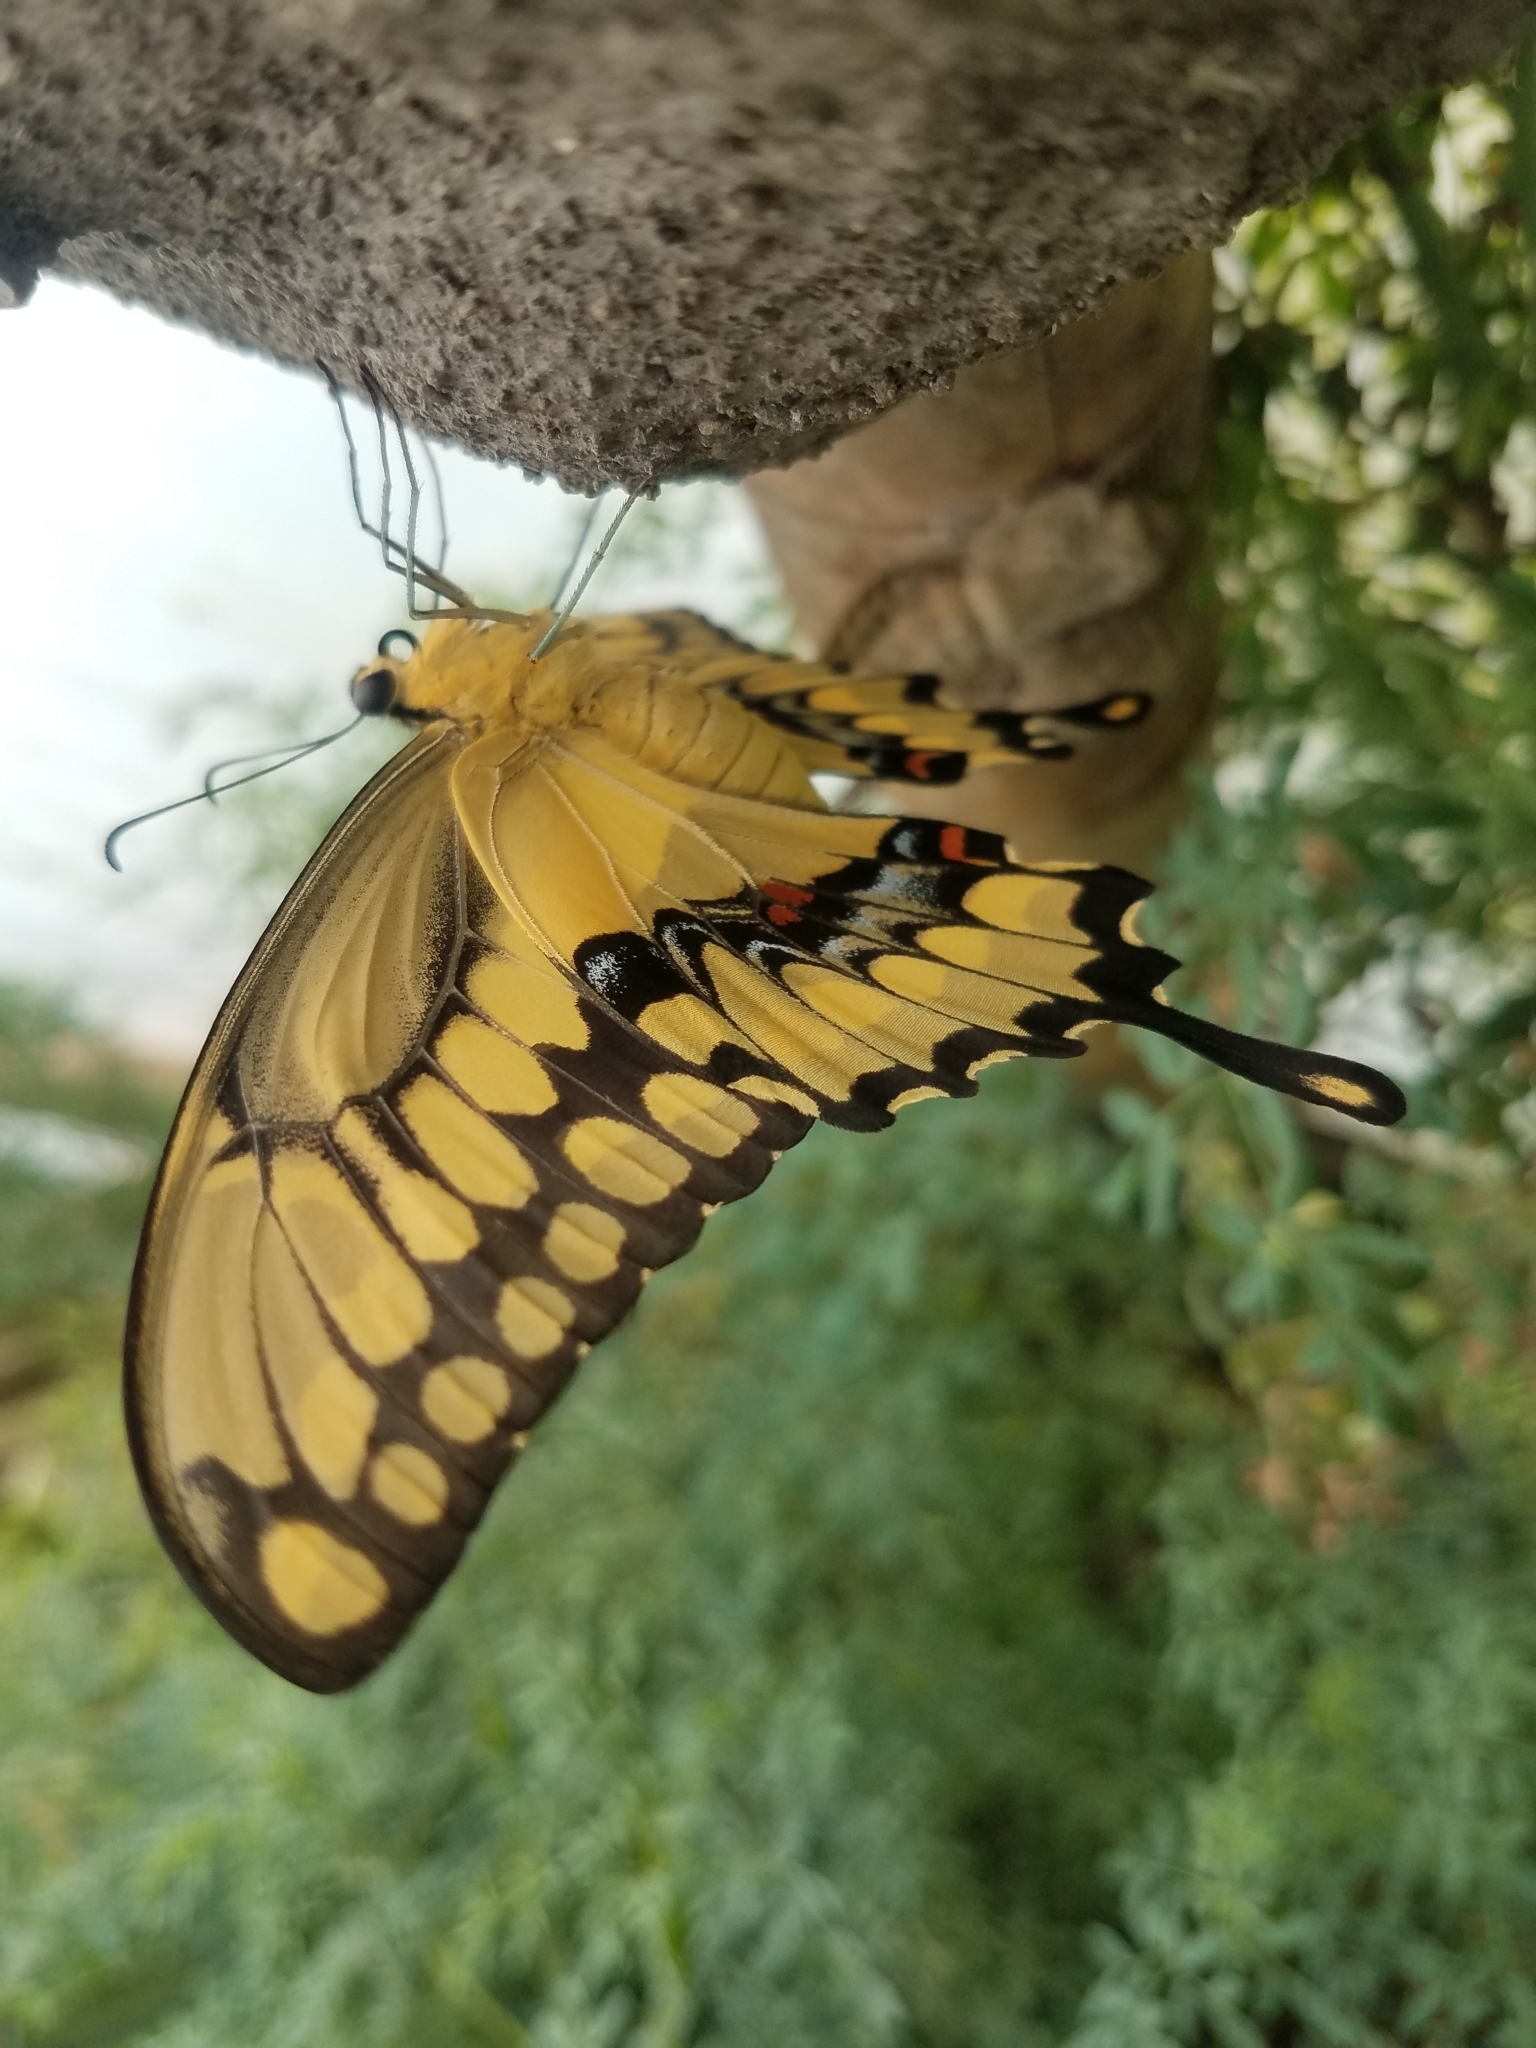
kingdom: Animalia
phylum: Arthropoda
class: Insecta
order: Lepidoptera
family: Papilionidae
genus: Papilio
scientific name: Papilio rumiko
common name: Western giant swallowtail
